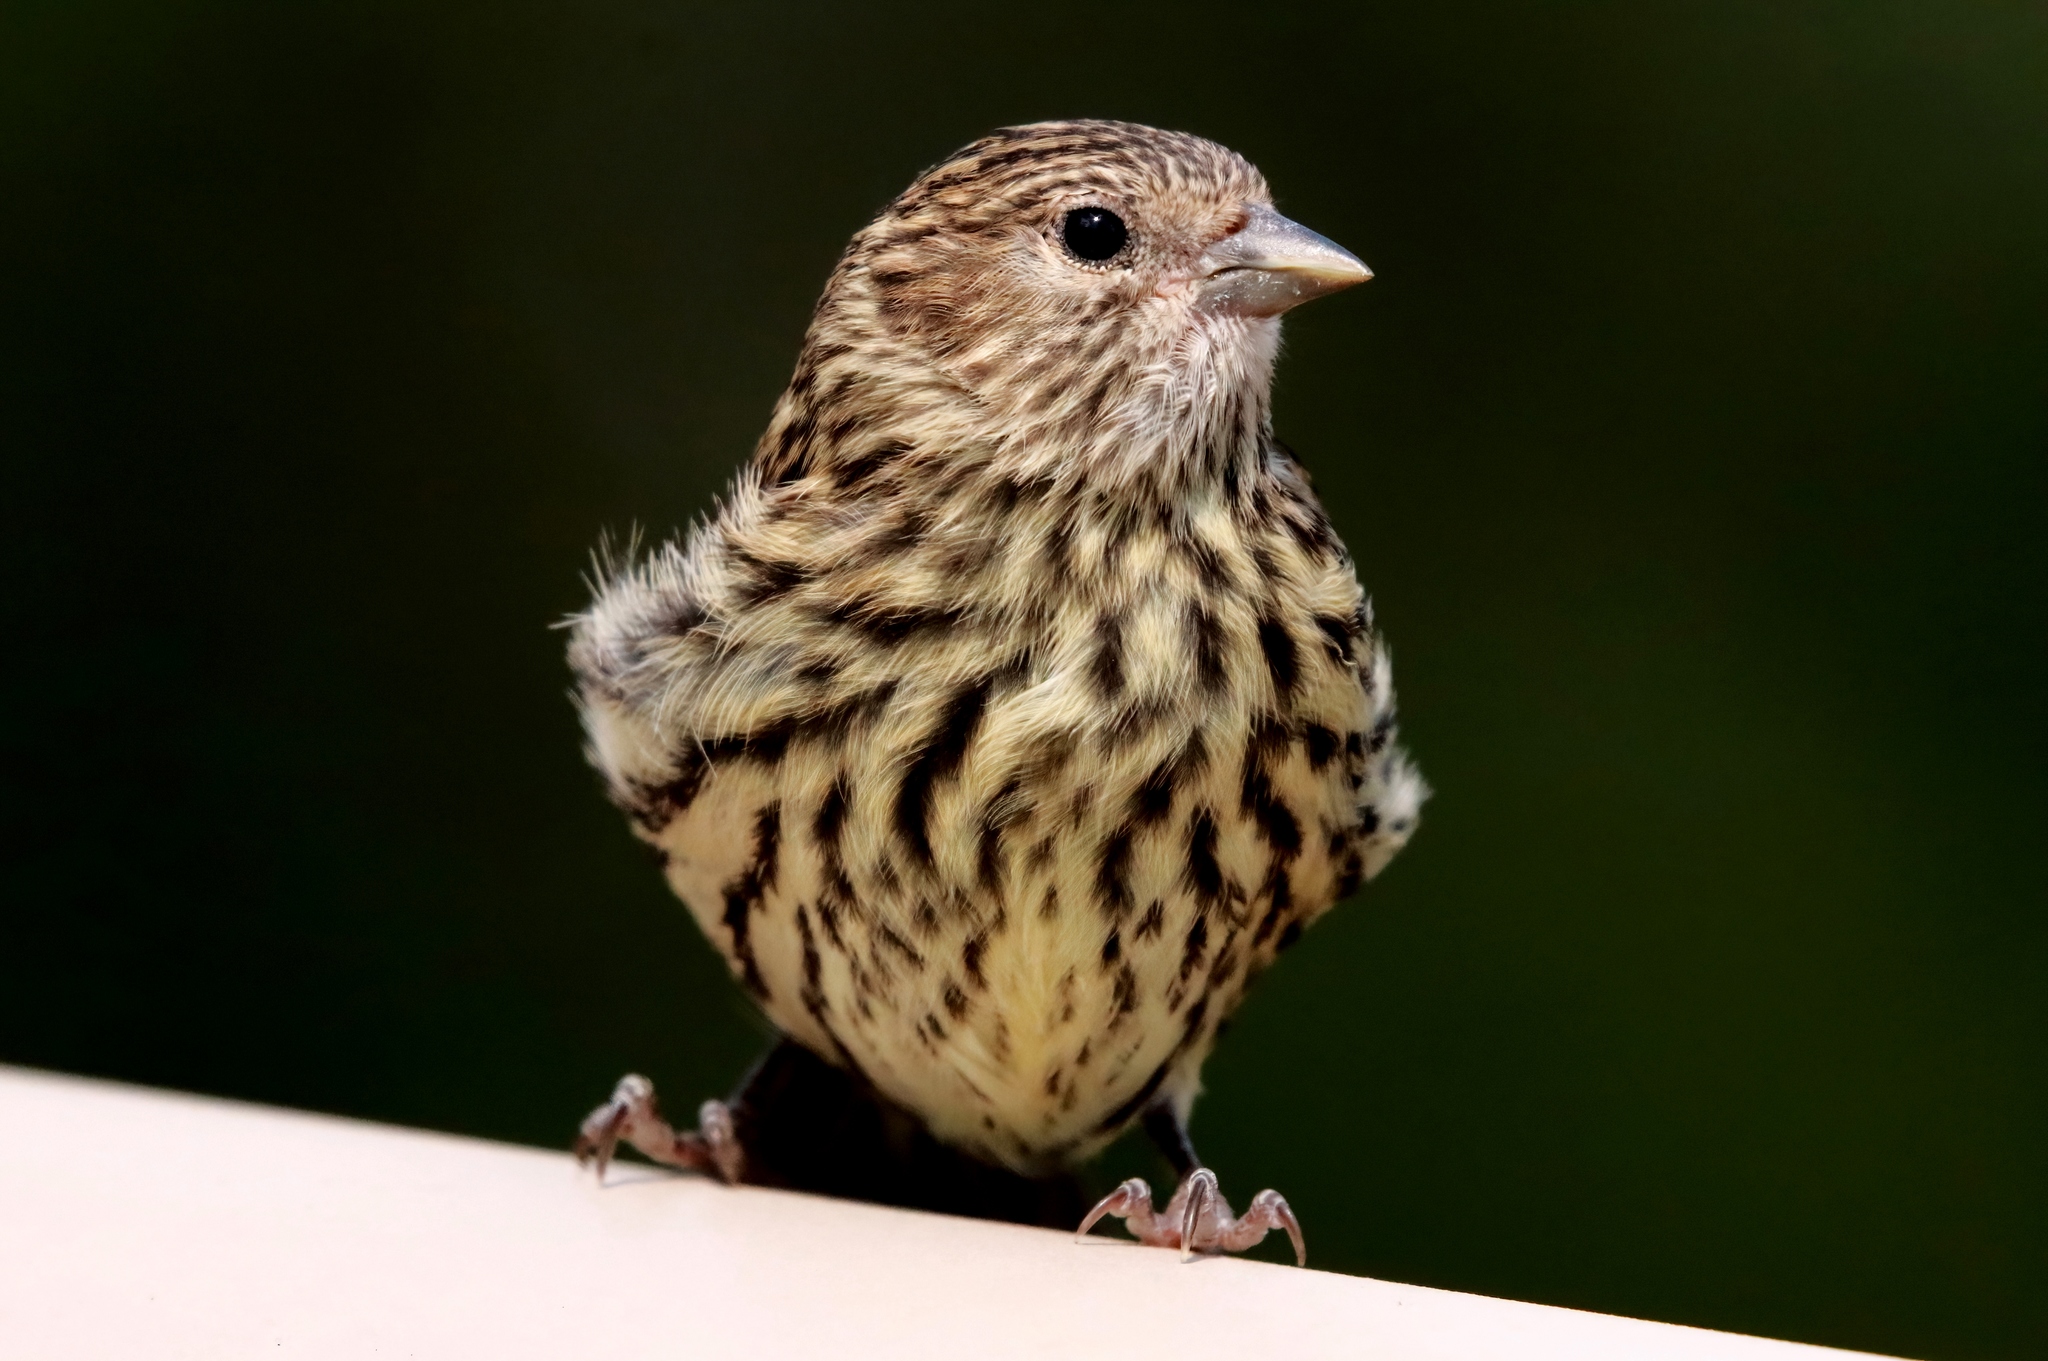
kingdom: Animalia
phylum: Chordata
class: Aves
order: Passeriformes
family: Fringillidae
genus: Spinus
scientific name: Spinus pinus
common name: Pine siskin
